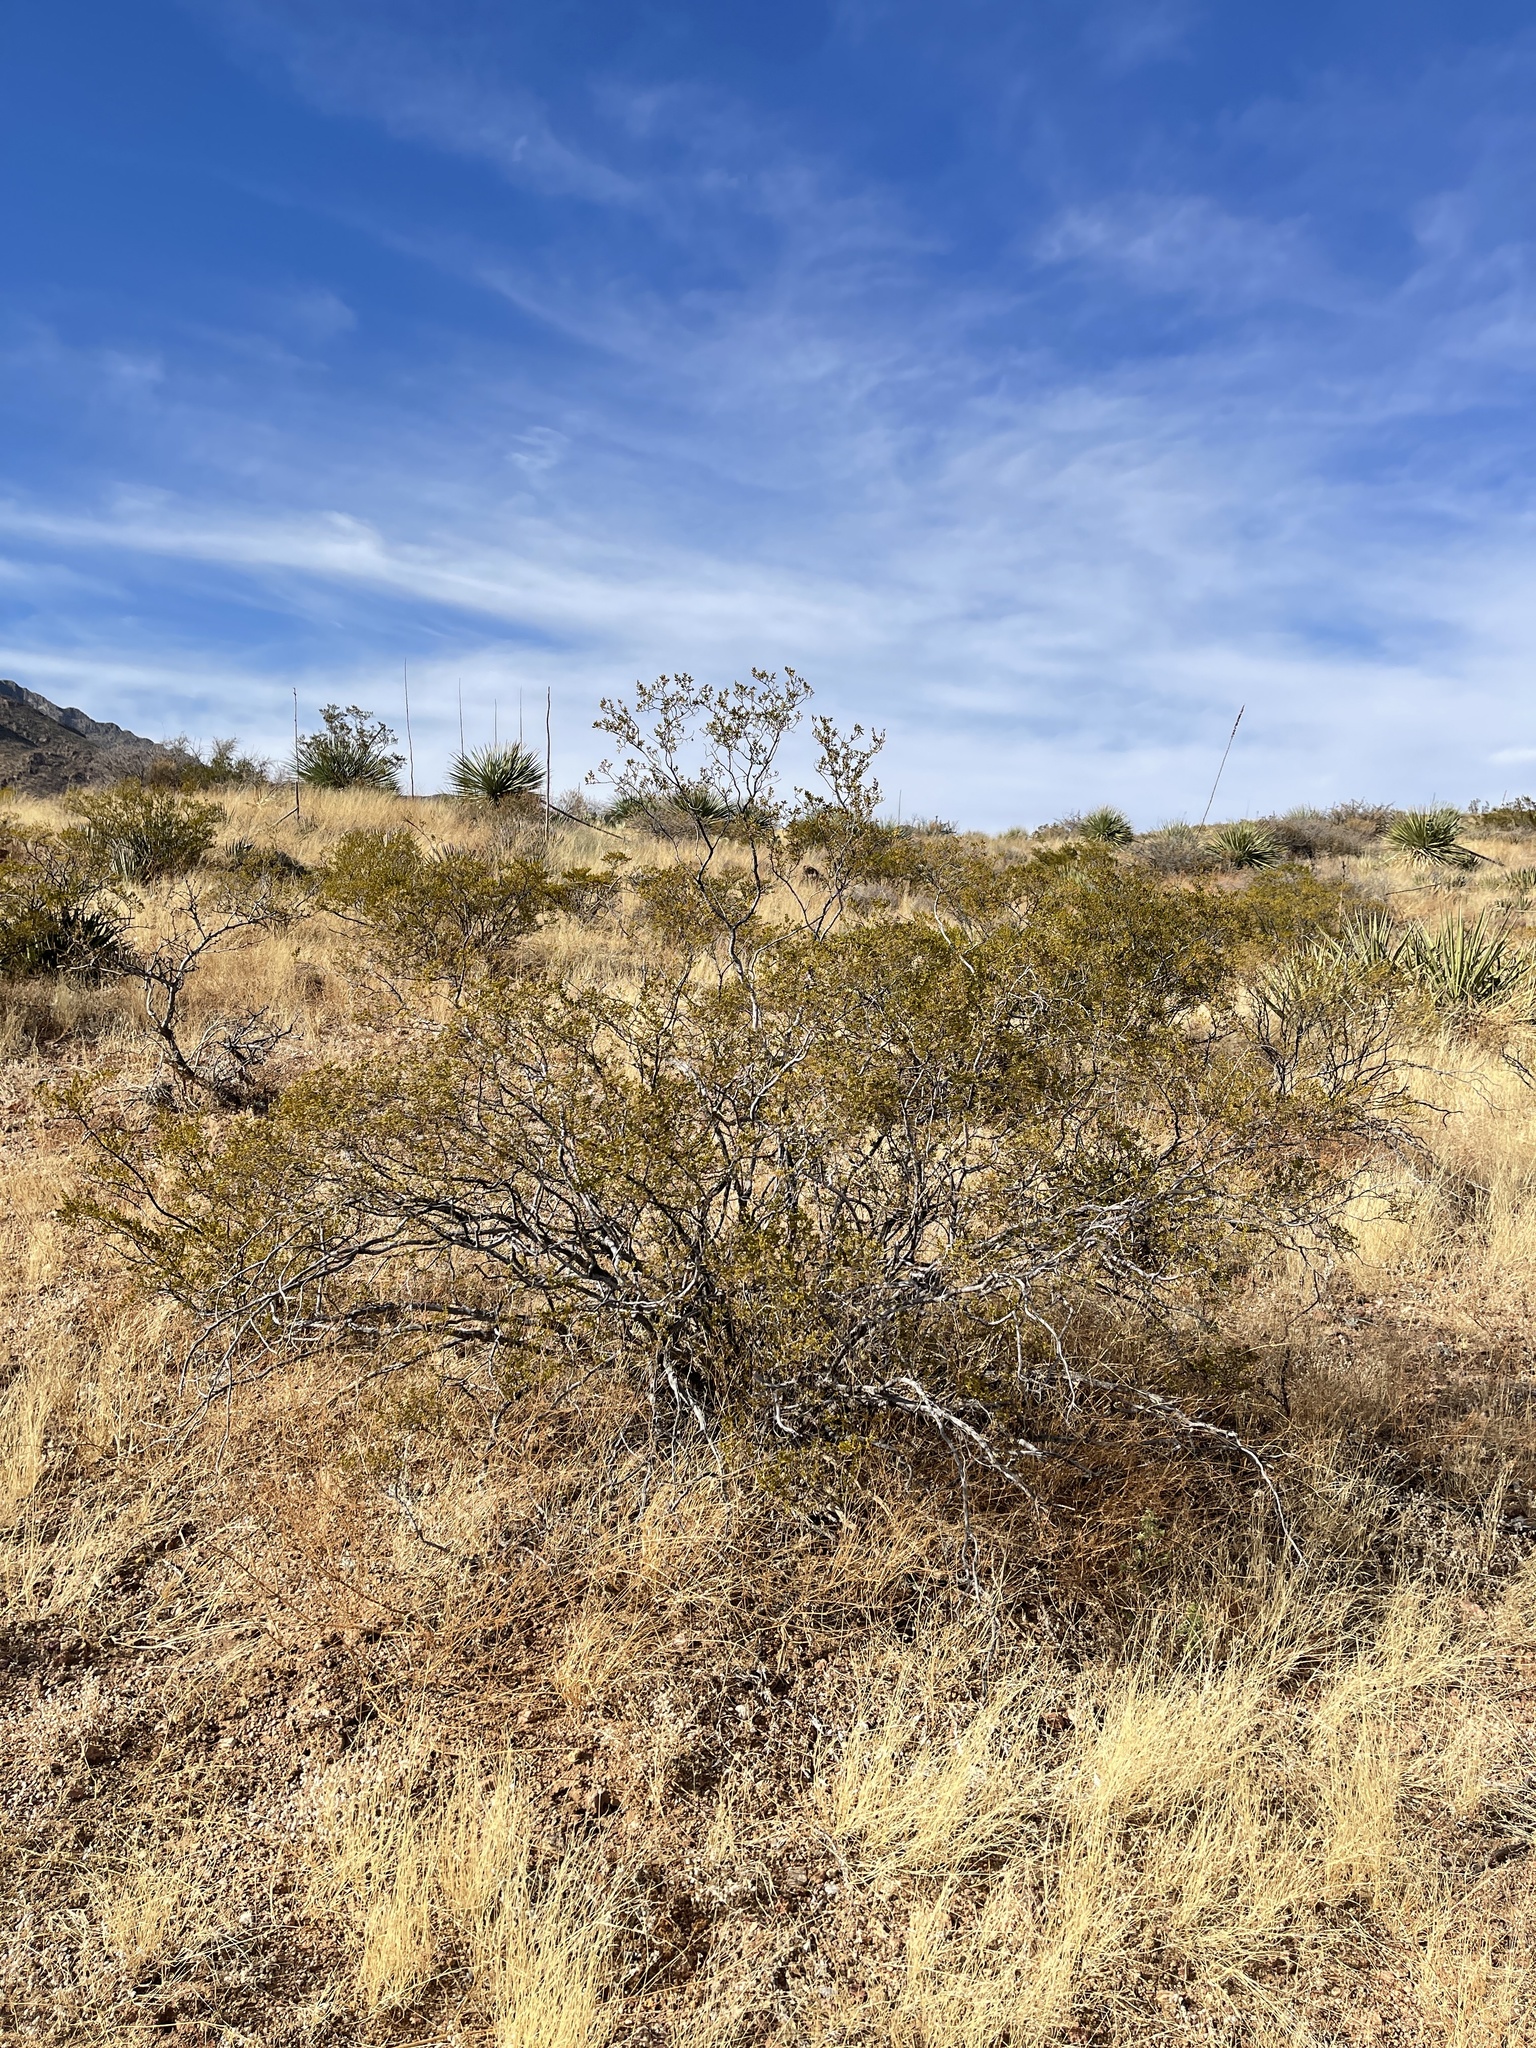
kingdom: Plantae
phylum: Tracheophyta
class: Magnoliopsida
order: Zygophyllales
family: Zygophyllaceae
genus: Larrea
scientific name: Larrea tridentata
